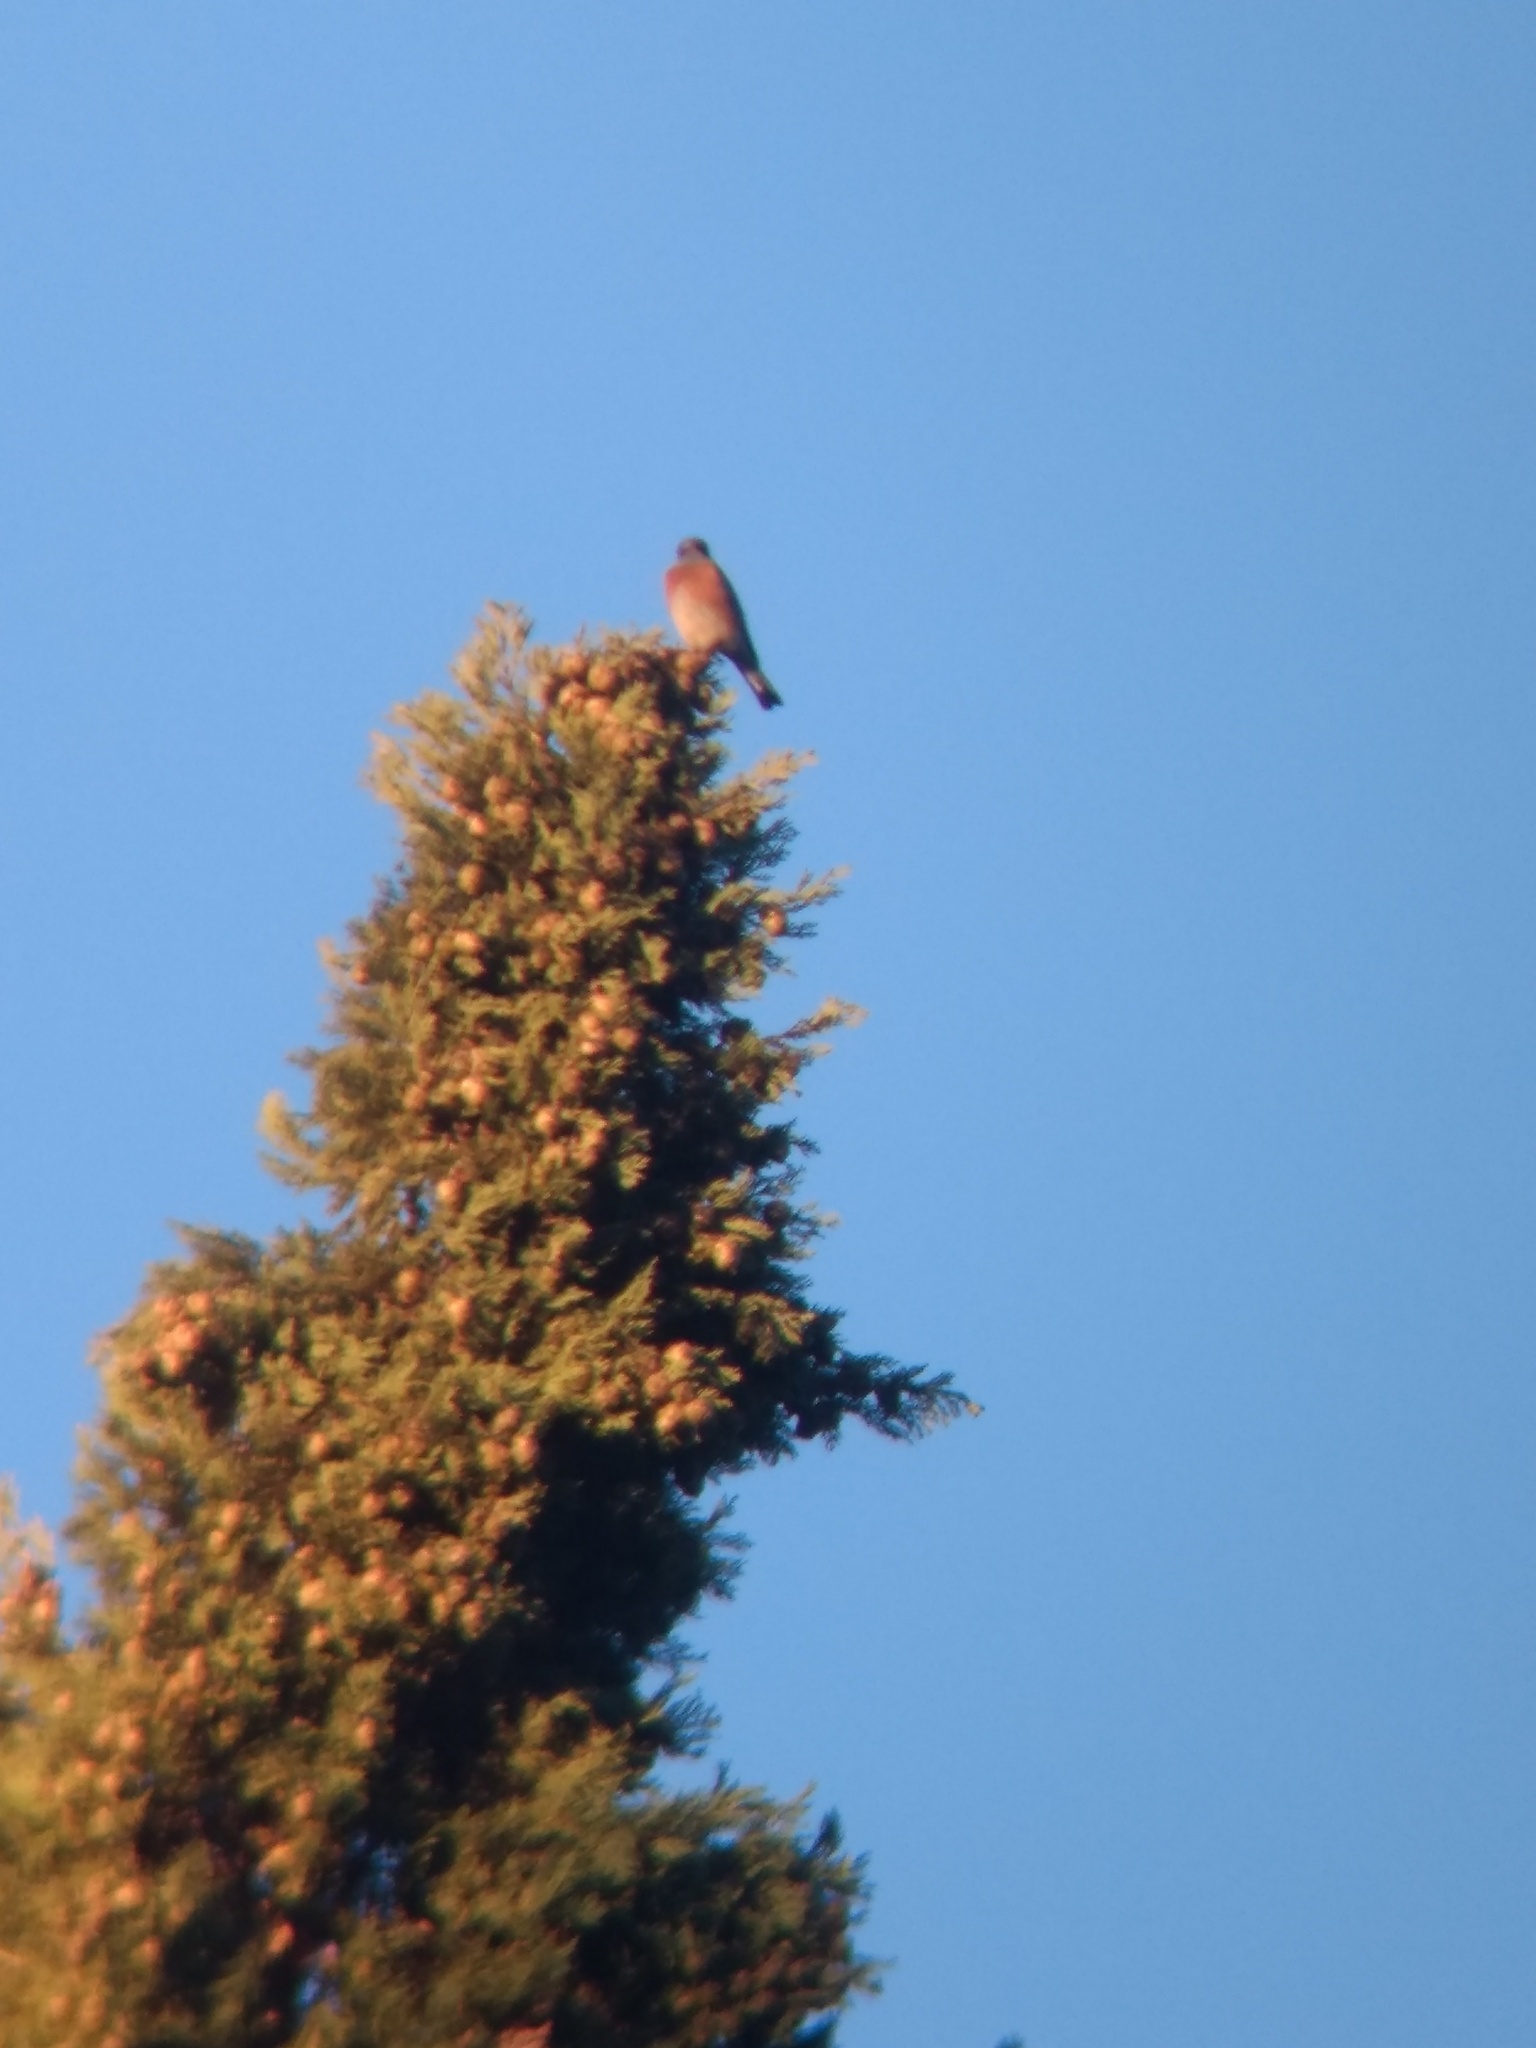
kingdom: Animalia
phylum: Chordata
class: Aves
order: Passeriformes
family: Turdidae
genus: Sialia
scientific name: Sialia mexicana
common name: Western bluebird
